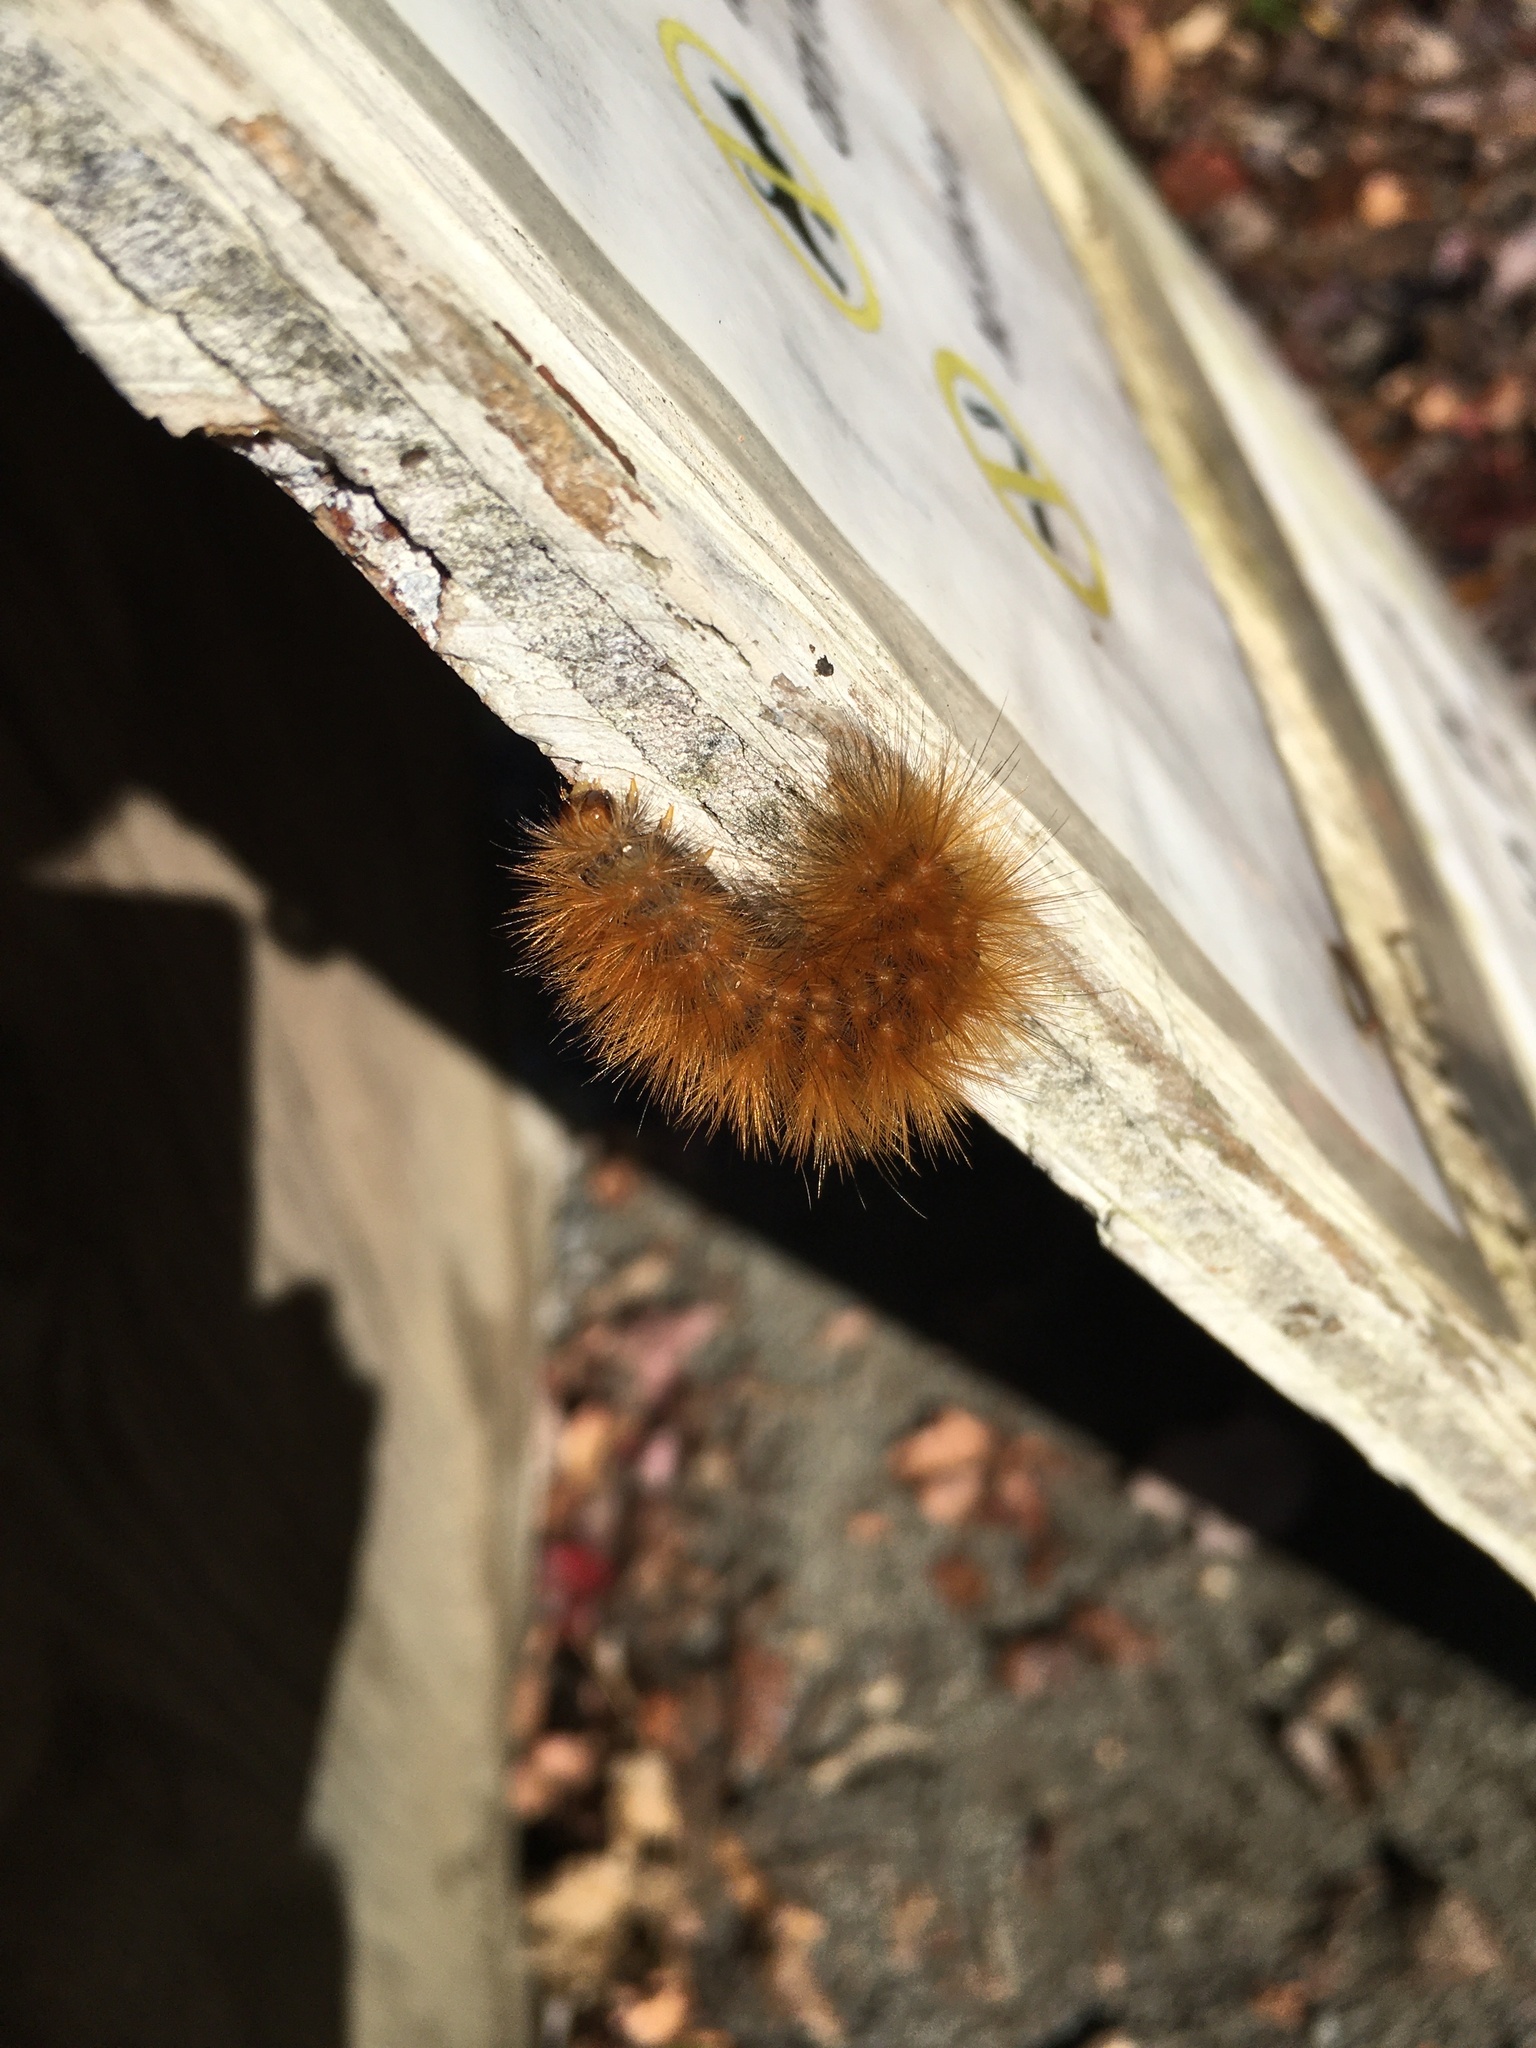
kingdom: Animalia
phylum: Arthropoda
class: Insecta
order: Lepidoptera
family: Erebidae
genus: Spilosoma
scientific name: Spilosoma virginica
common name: Virginia tiger moth
